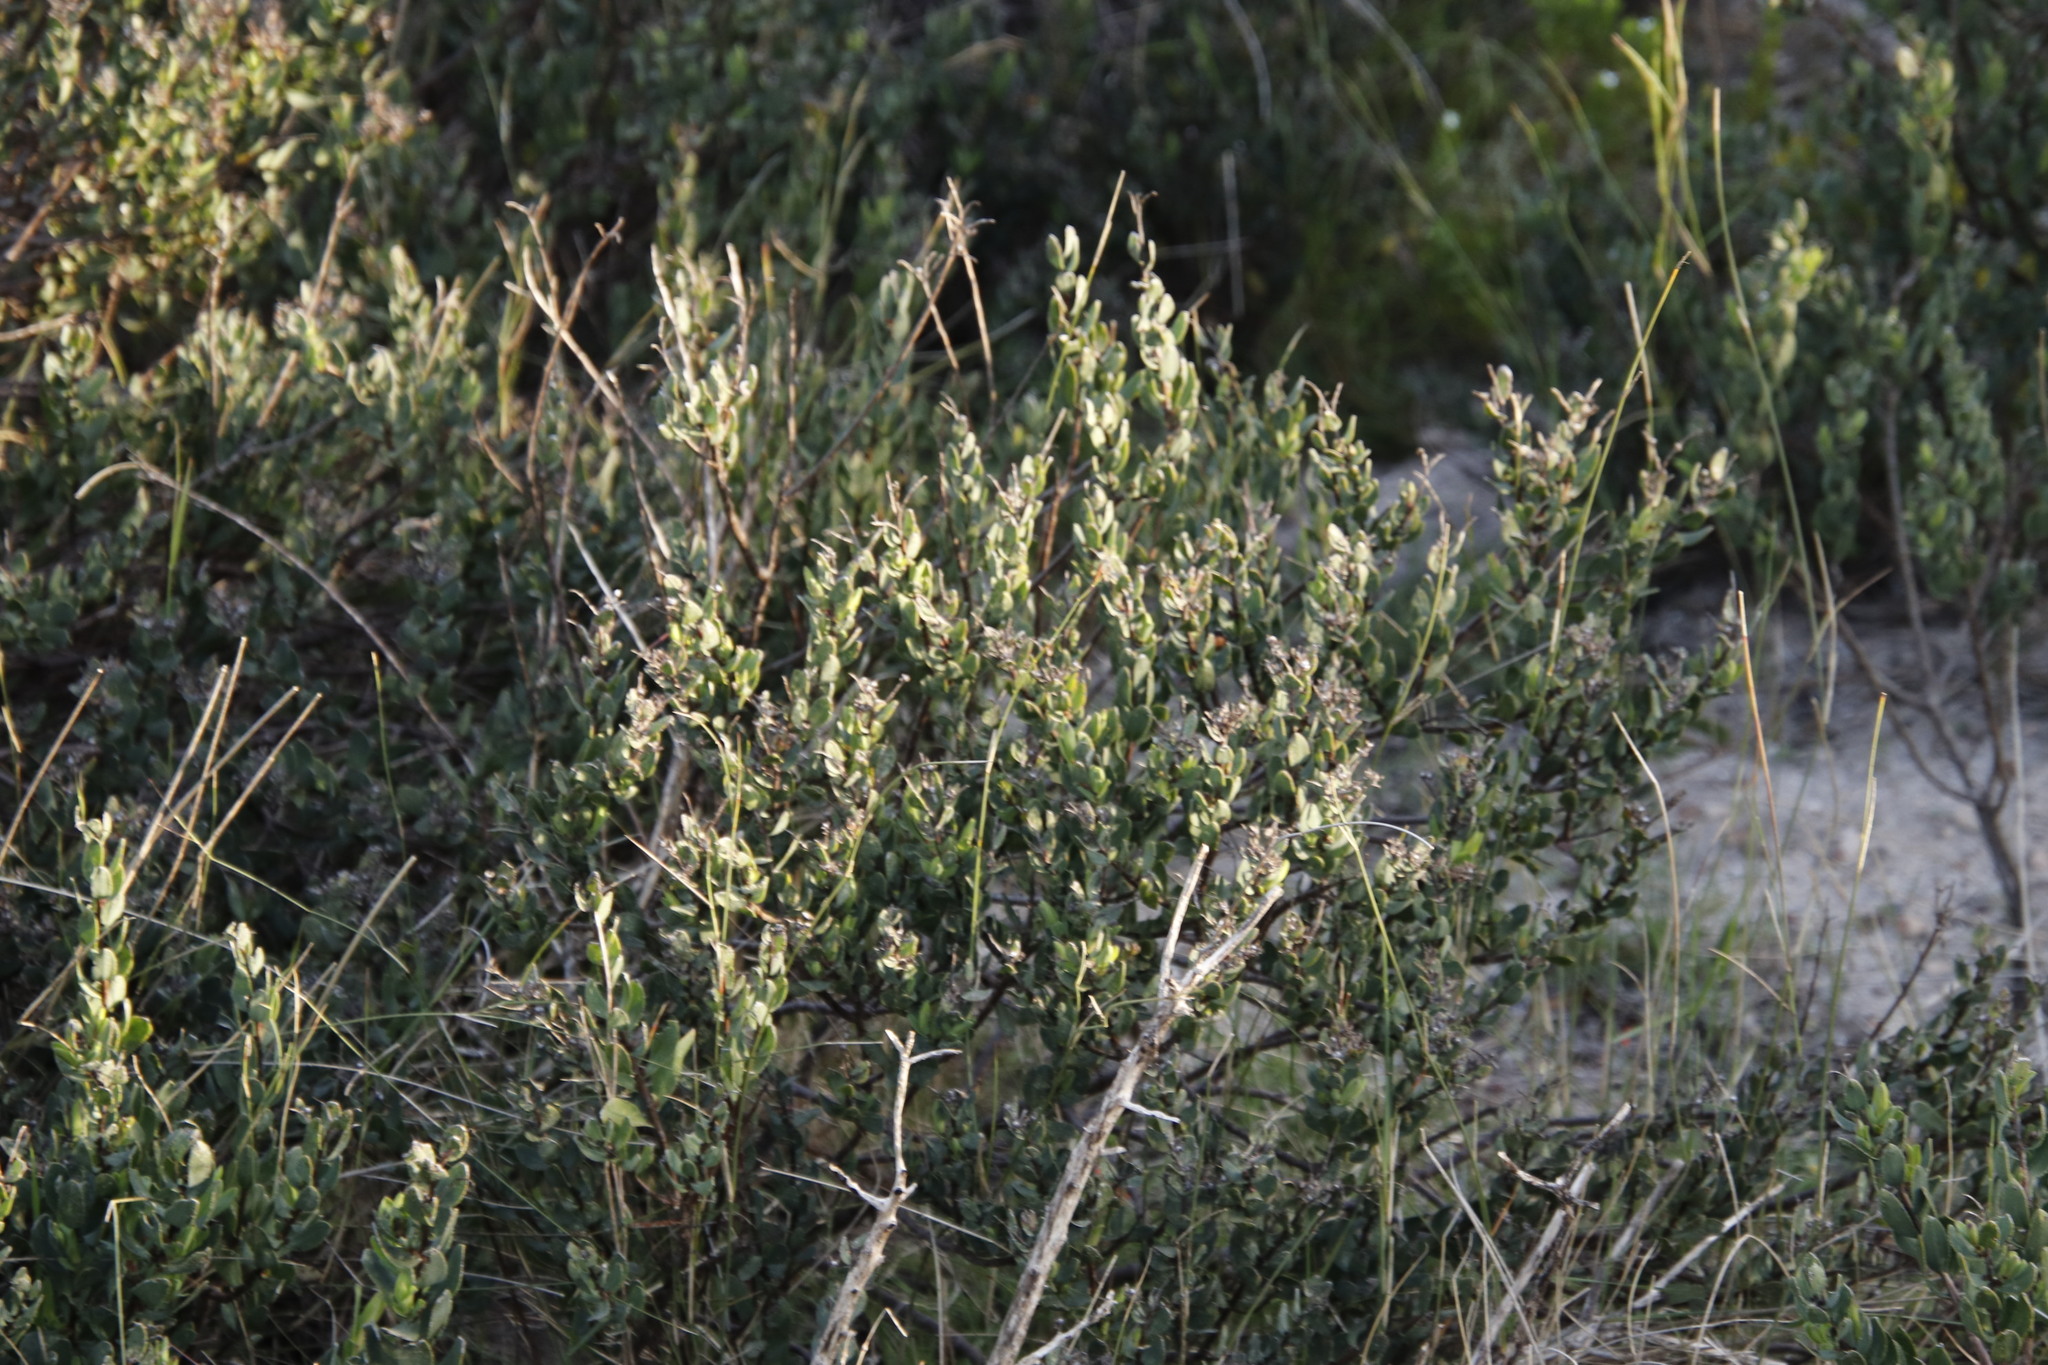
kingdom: Plantae
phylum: Tracheophyta
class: Magnoliopsida
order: Boraginales
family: Boraginaceae
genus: Lobostemon
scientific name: Lobostemon glaucophyllus
